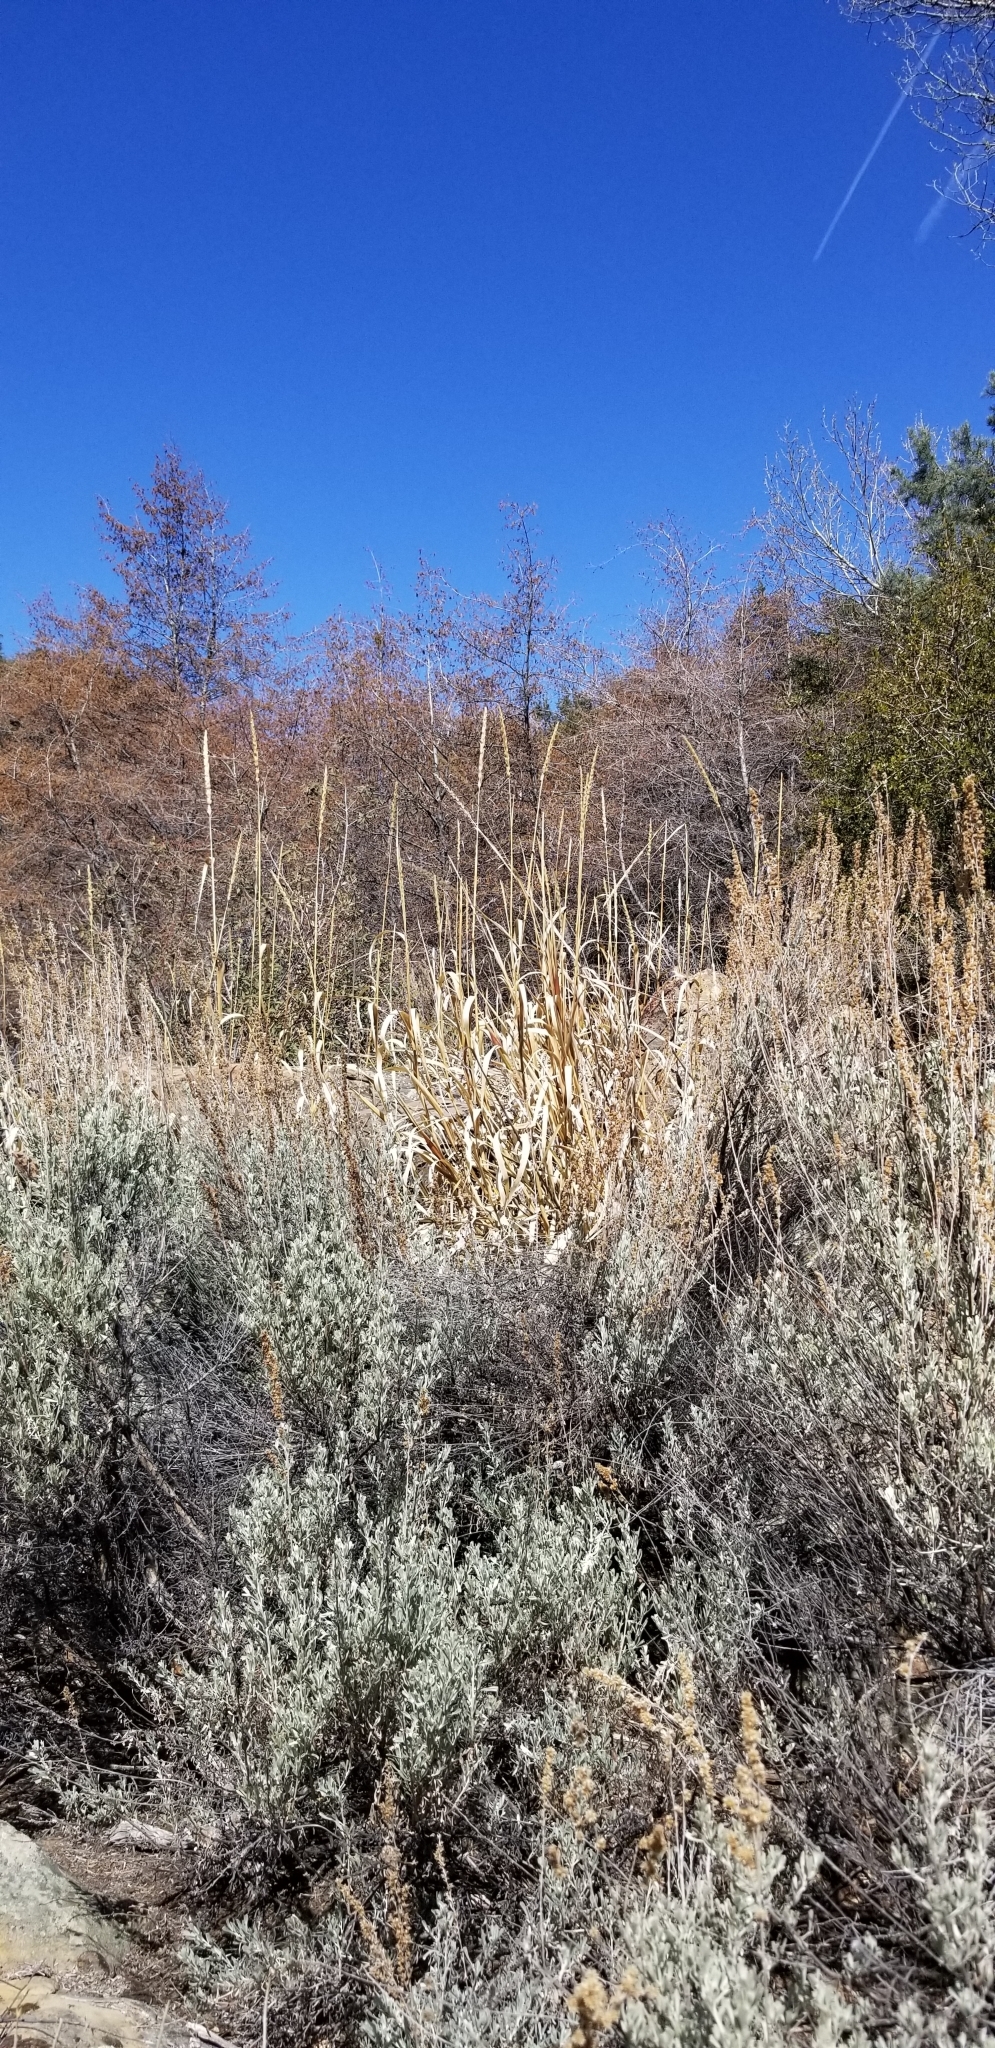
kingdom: Plantae
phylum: Tracheophyta
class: Liliopsida
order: Poales
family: Poaceae
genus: Leymus
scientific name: Leymus condensatus
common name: Giant wild rye
